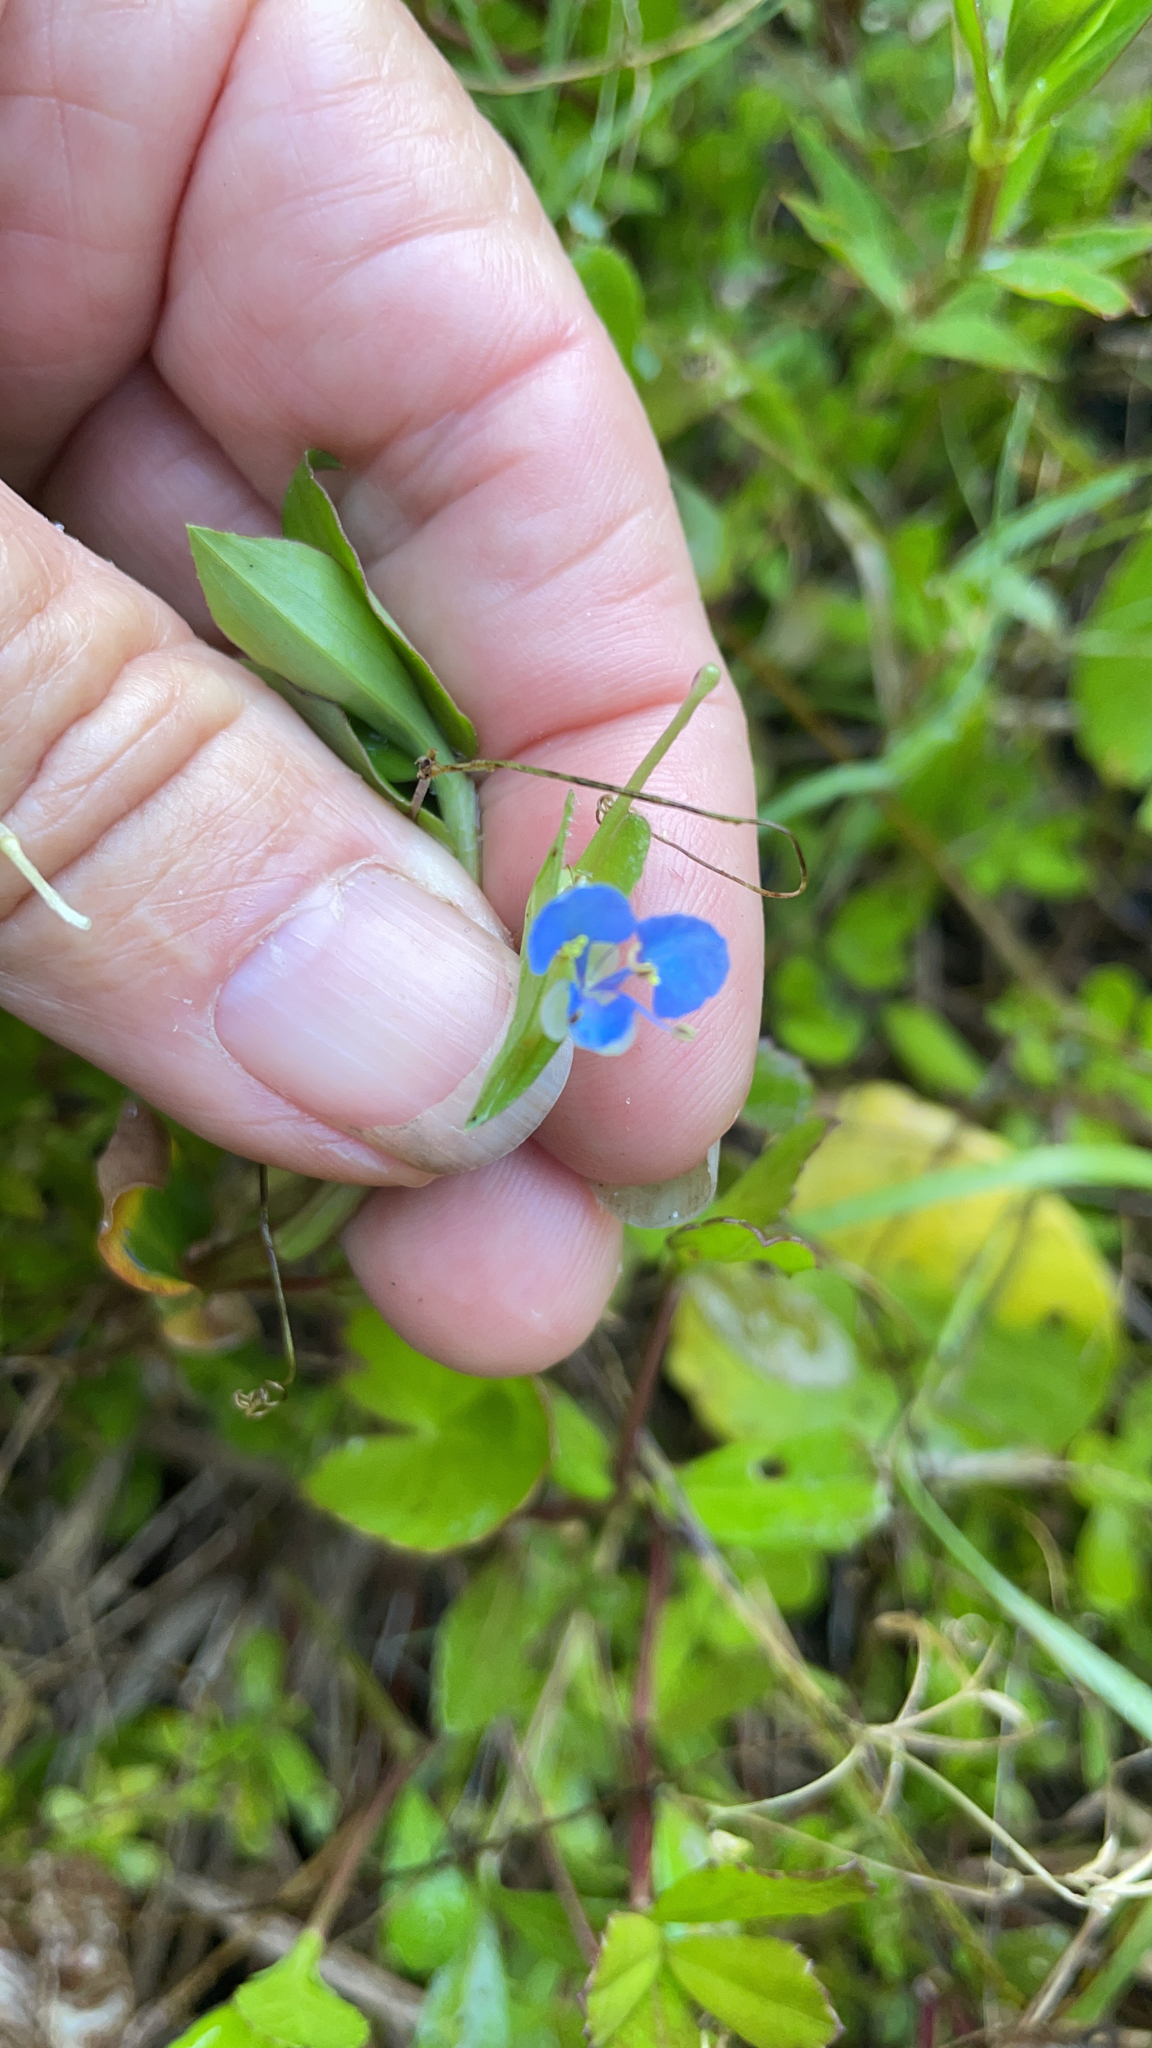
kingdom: Plantae
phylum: Tracheophyta
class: Liliopsida
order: Commelinales
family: Commelinaceae
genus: Commelina
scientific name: Commelina diffusa
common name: Climbing dayflower
